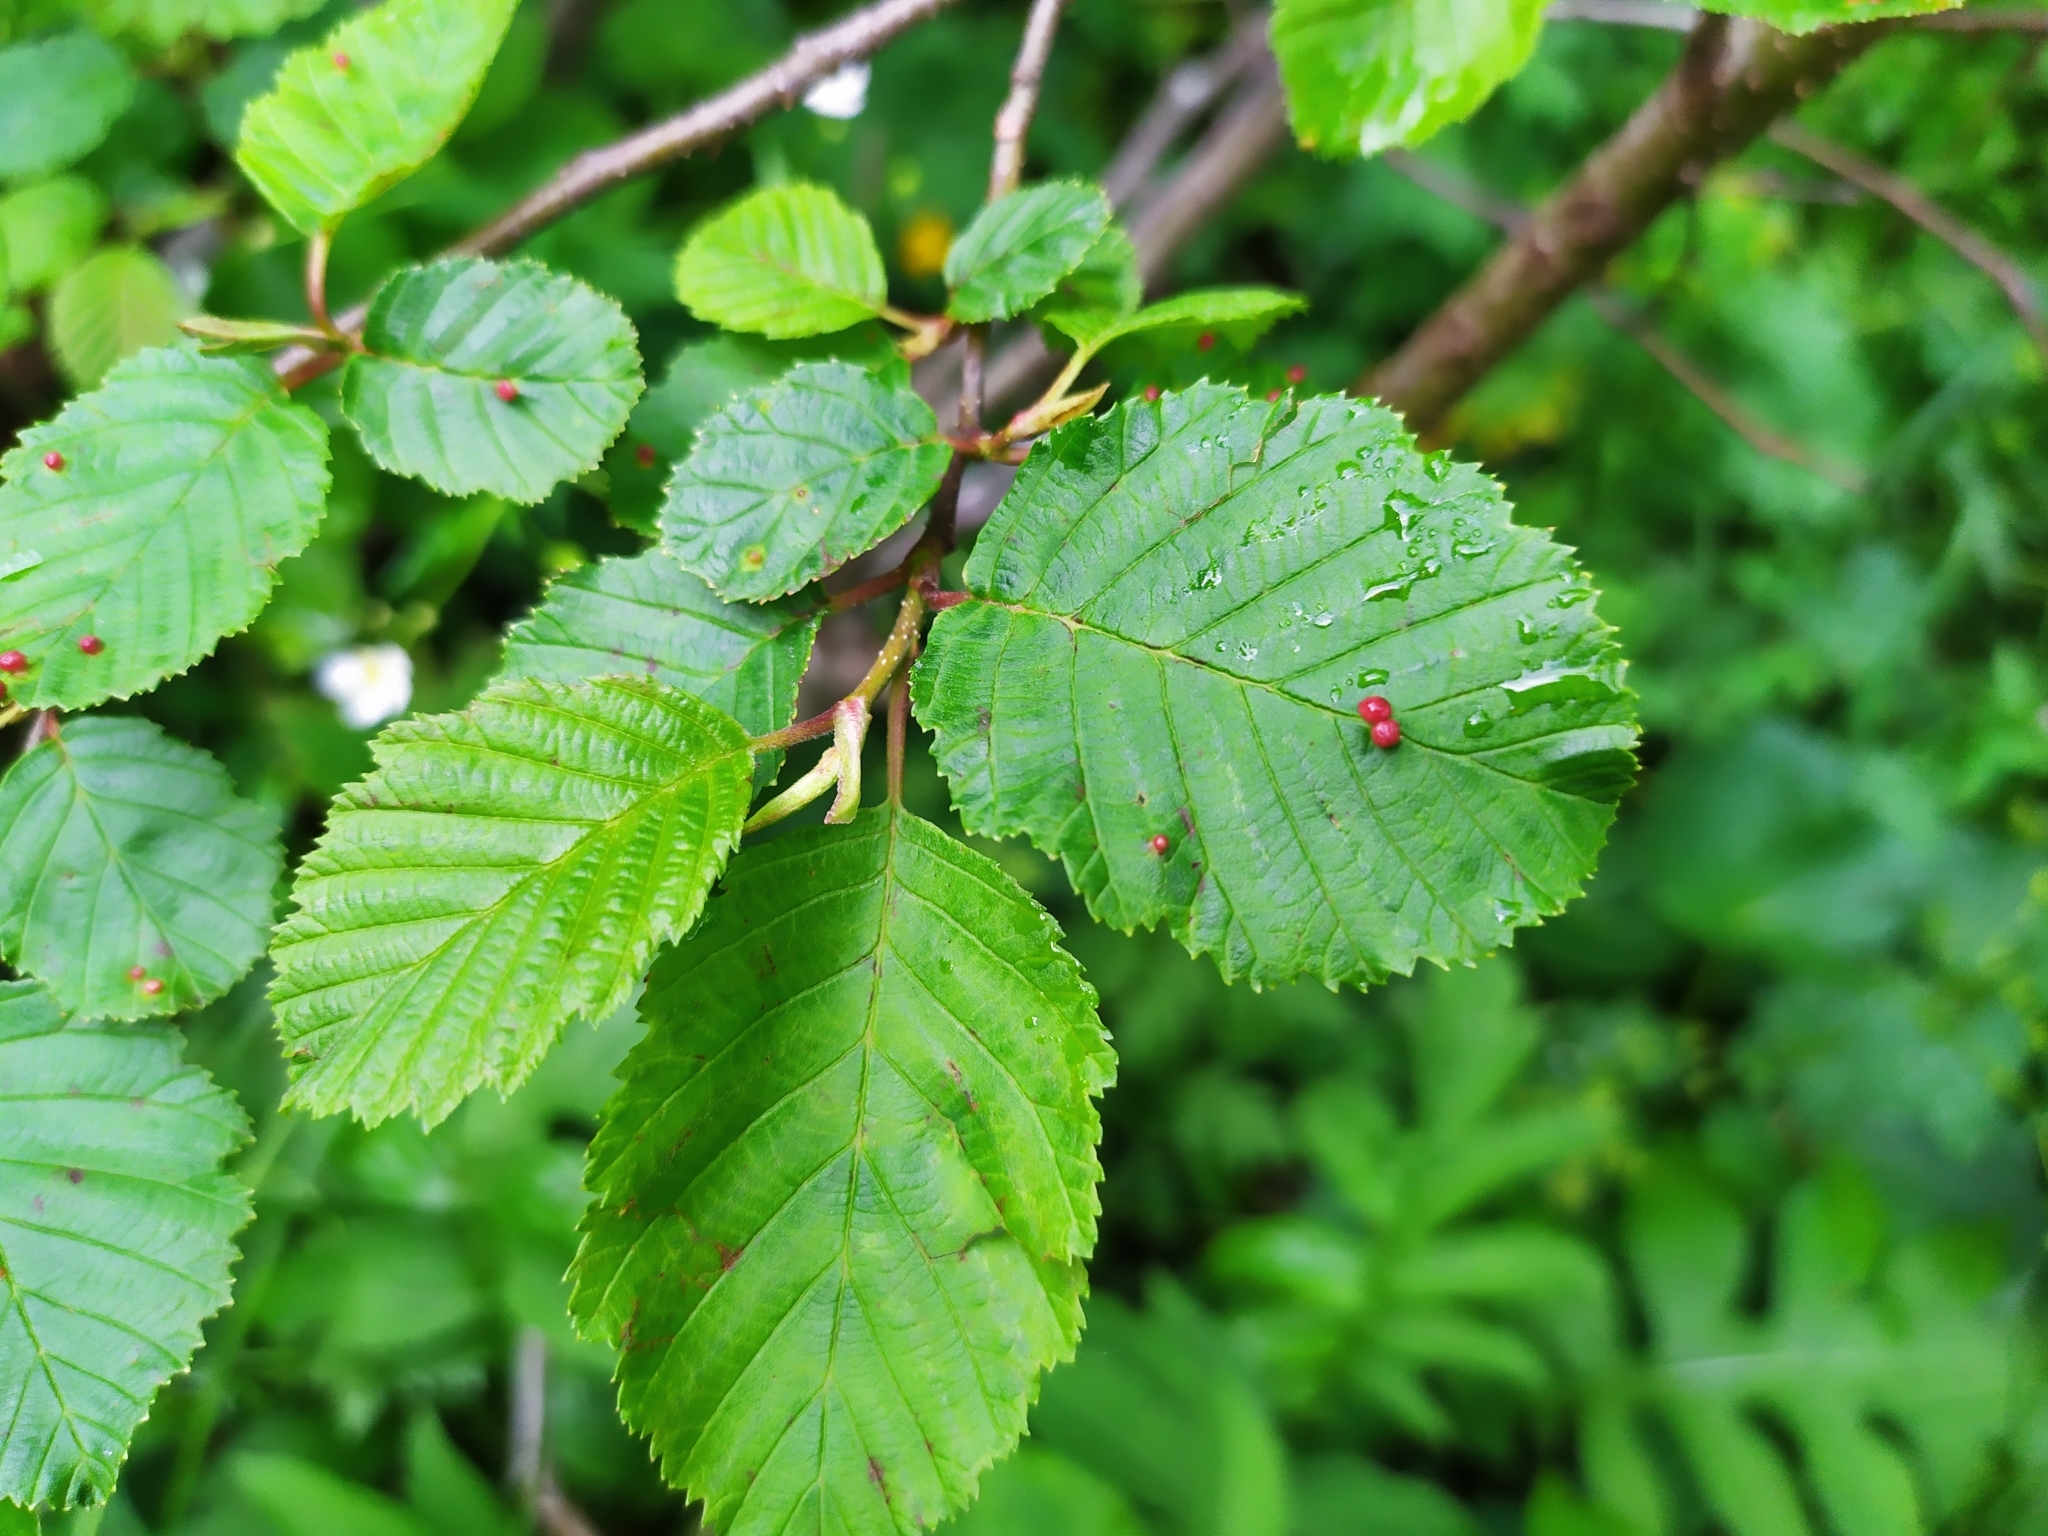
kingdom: Animalia
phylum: Arthropoda
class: Arachnida
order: Trombidiformes
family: Eriophyidae
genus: Eriophyes
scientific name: Eriophyes laevis
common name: Alder leaf gall mite
